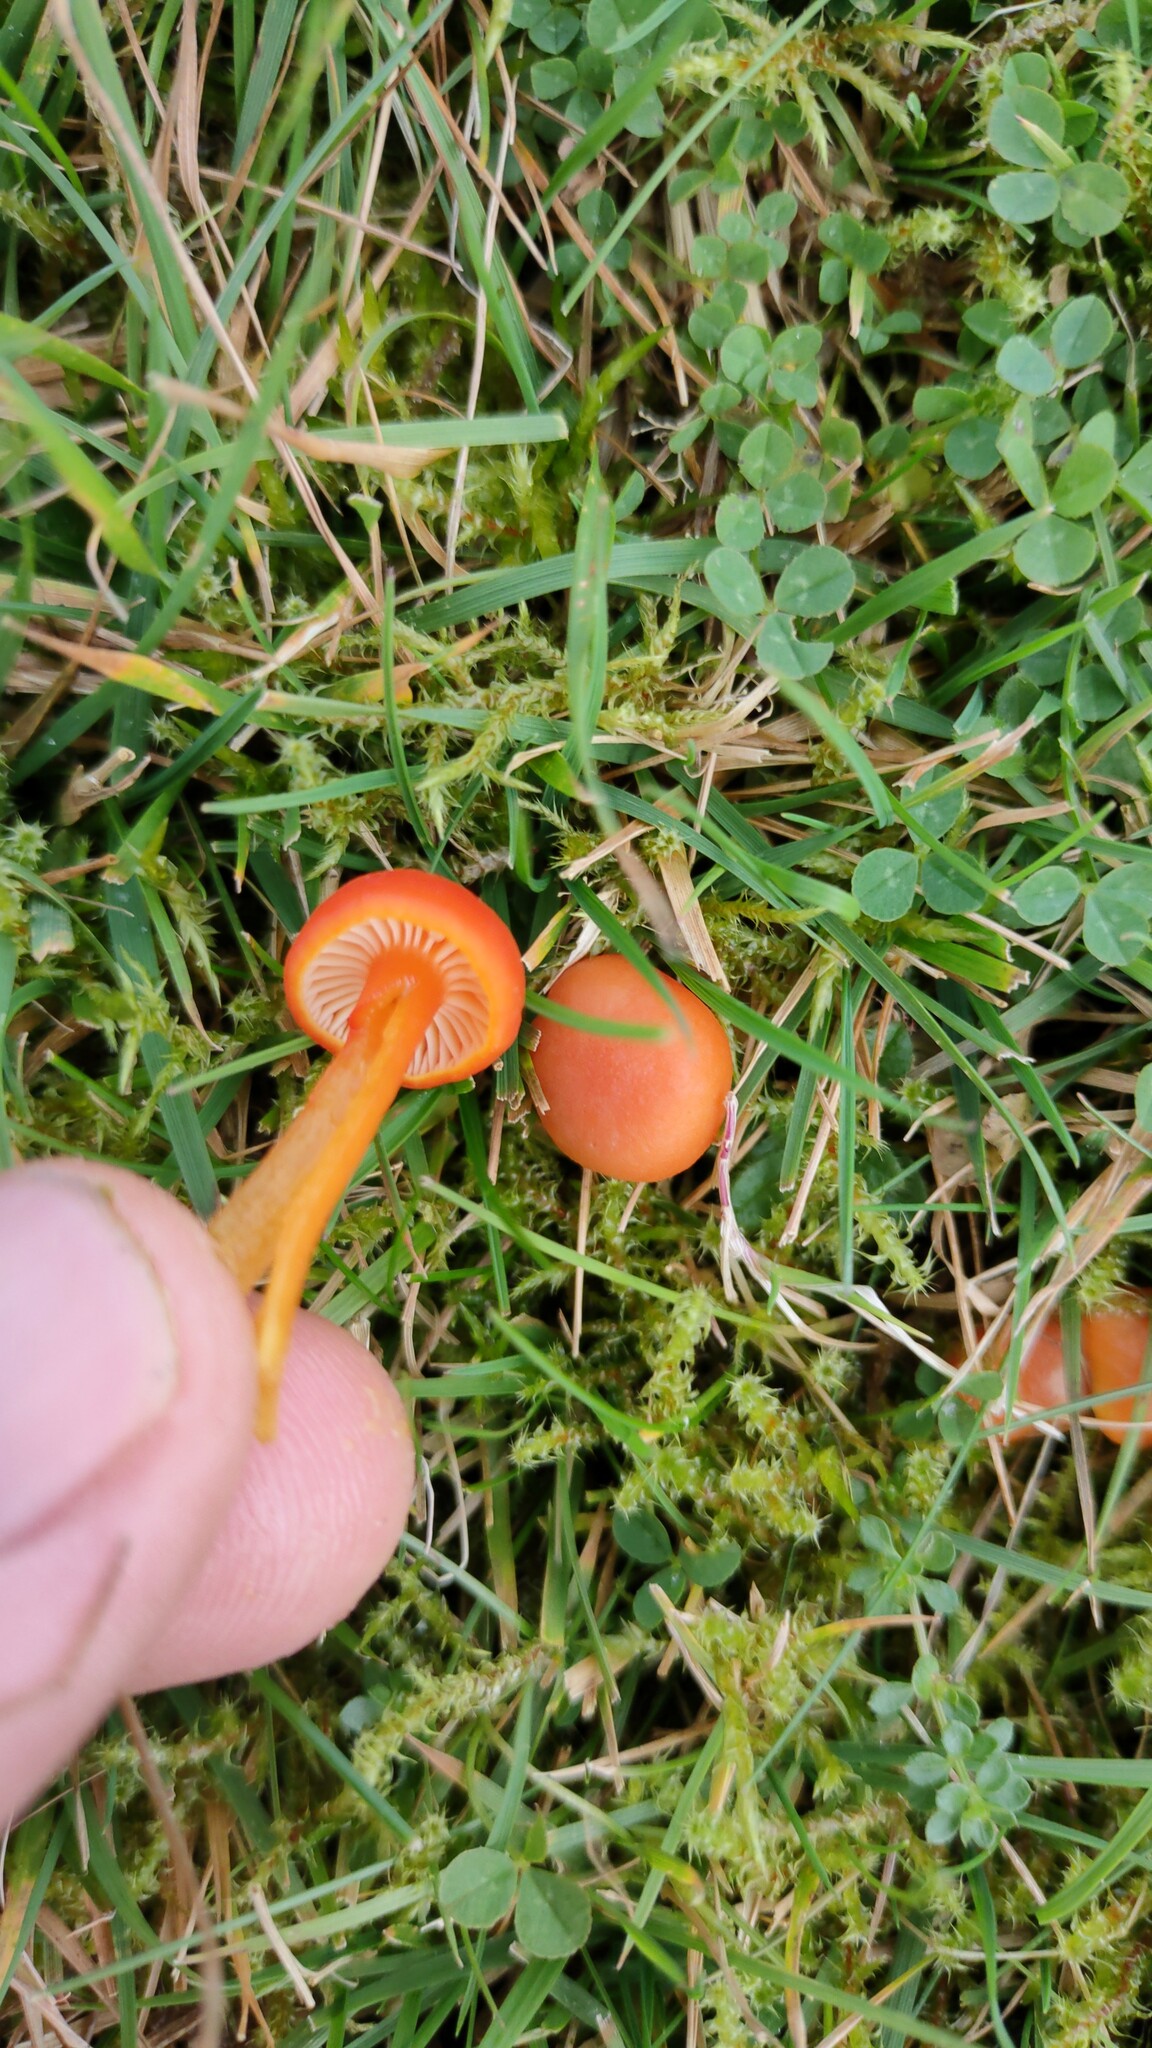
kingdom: Fungi
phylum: Basidiomycota
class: Agaricomycetes
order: Agaricales
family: Hygrophoraceae
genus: Hygrocybe
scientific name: Hygrocybe reidii
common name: Honey waxcap
